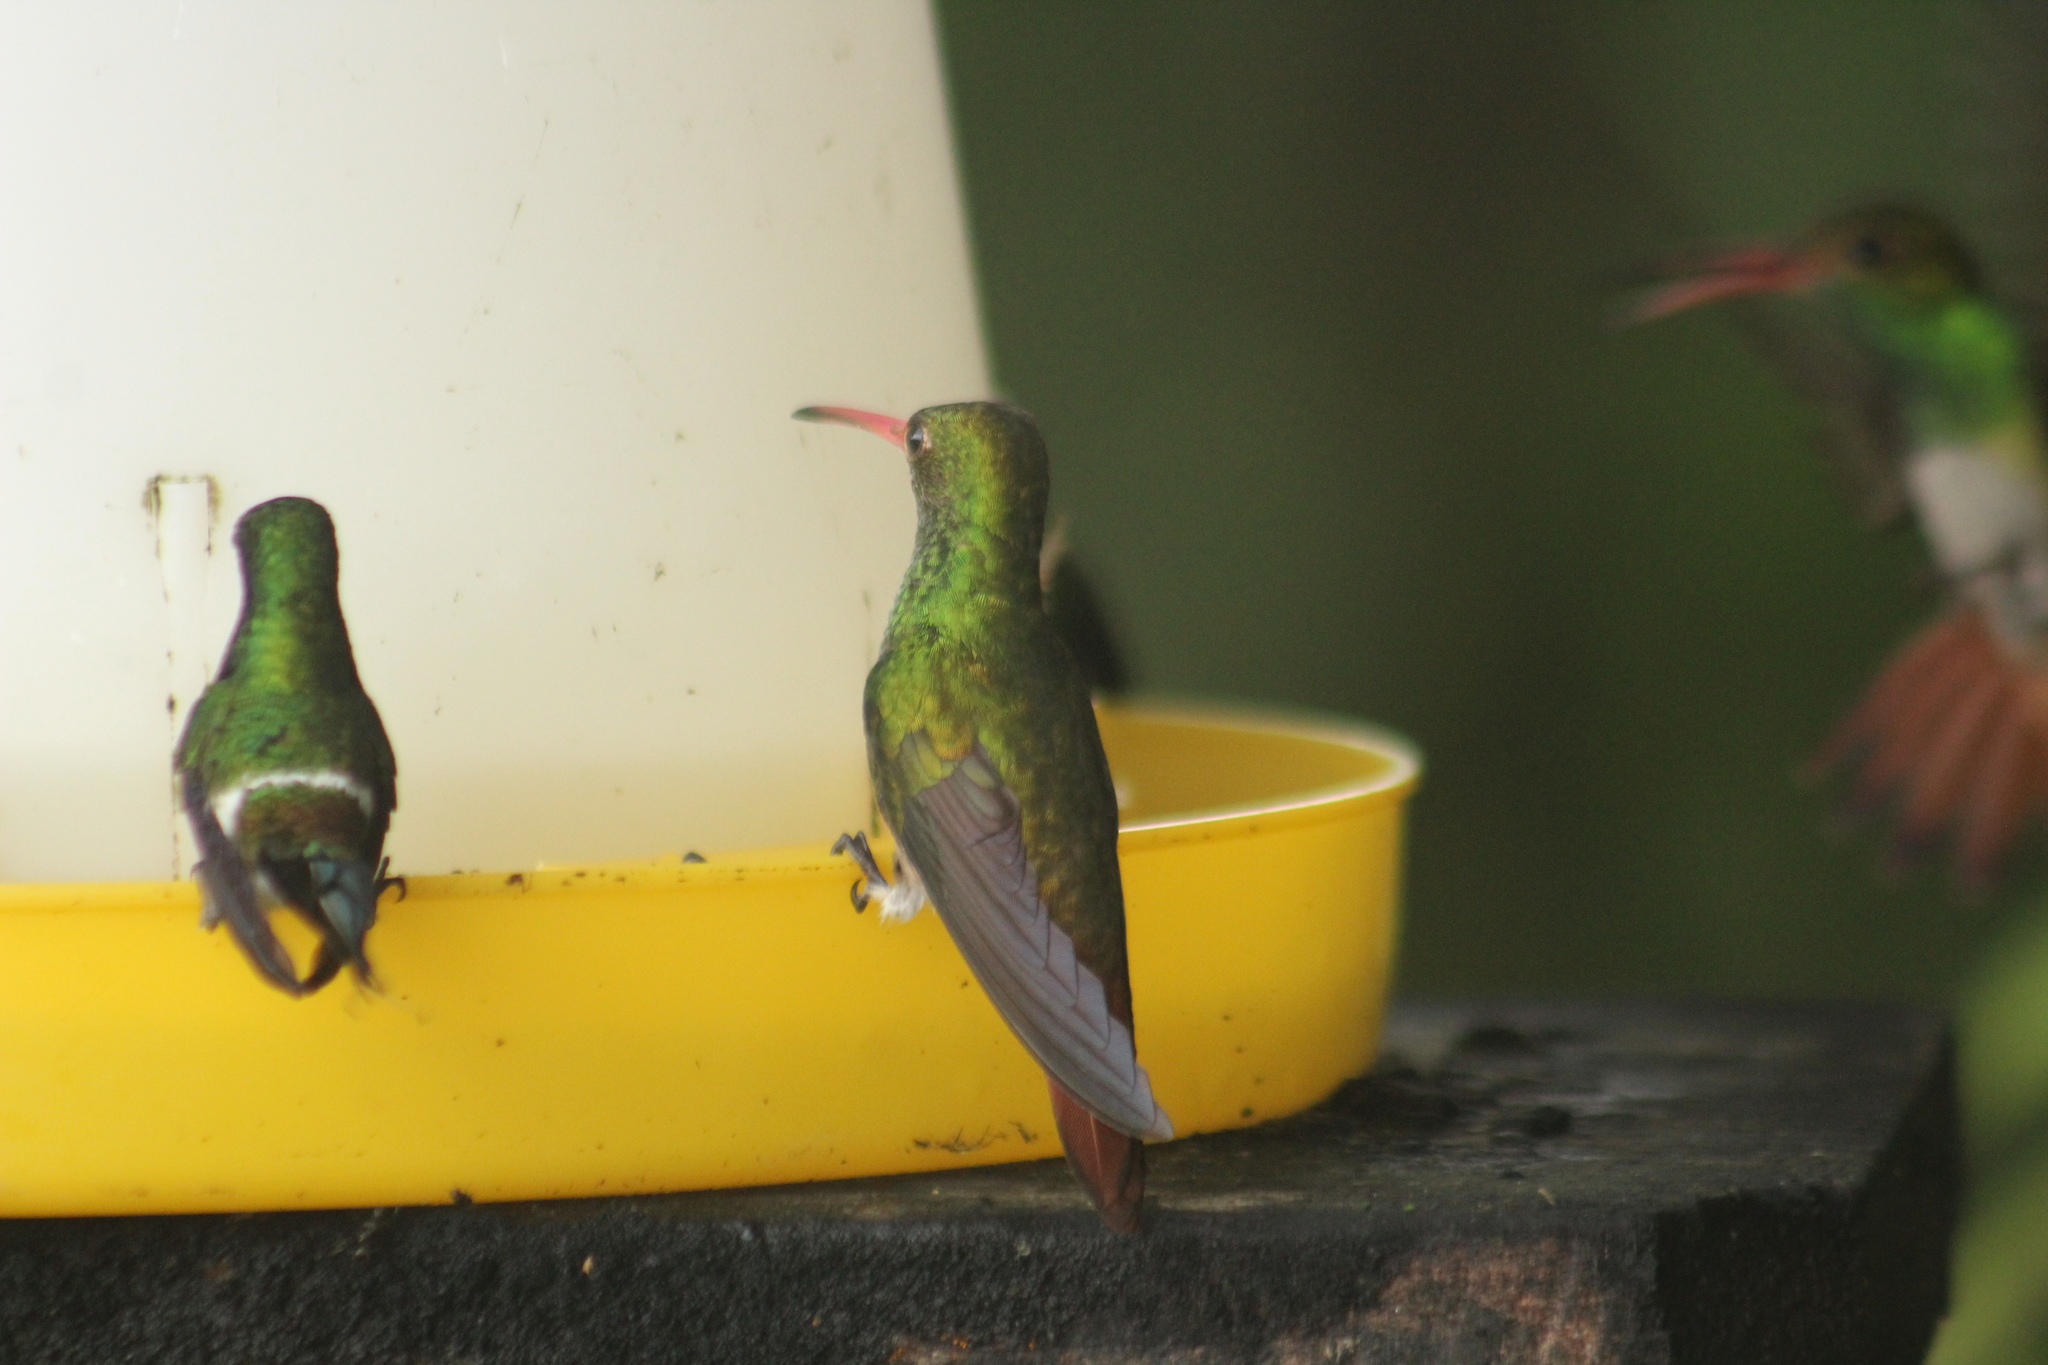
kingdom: Animalia
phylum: Chordata
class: Aves
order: Apodiformes
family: Trochilidae
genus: Amazilia
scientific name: Amazilia tzacatl
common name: Rufous-tailed hummingbird
